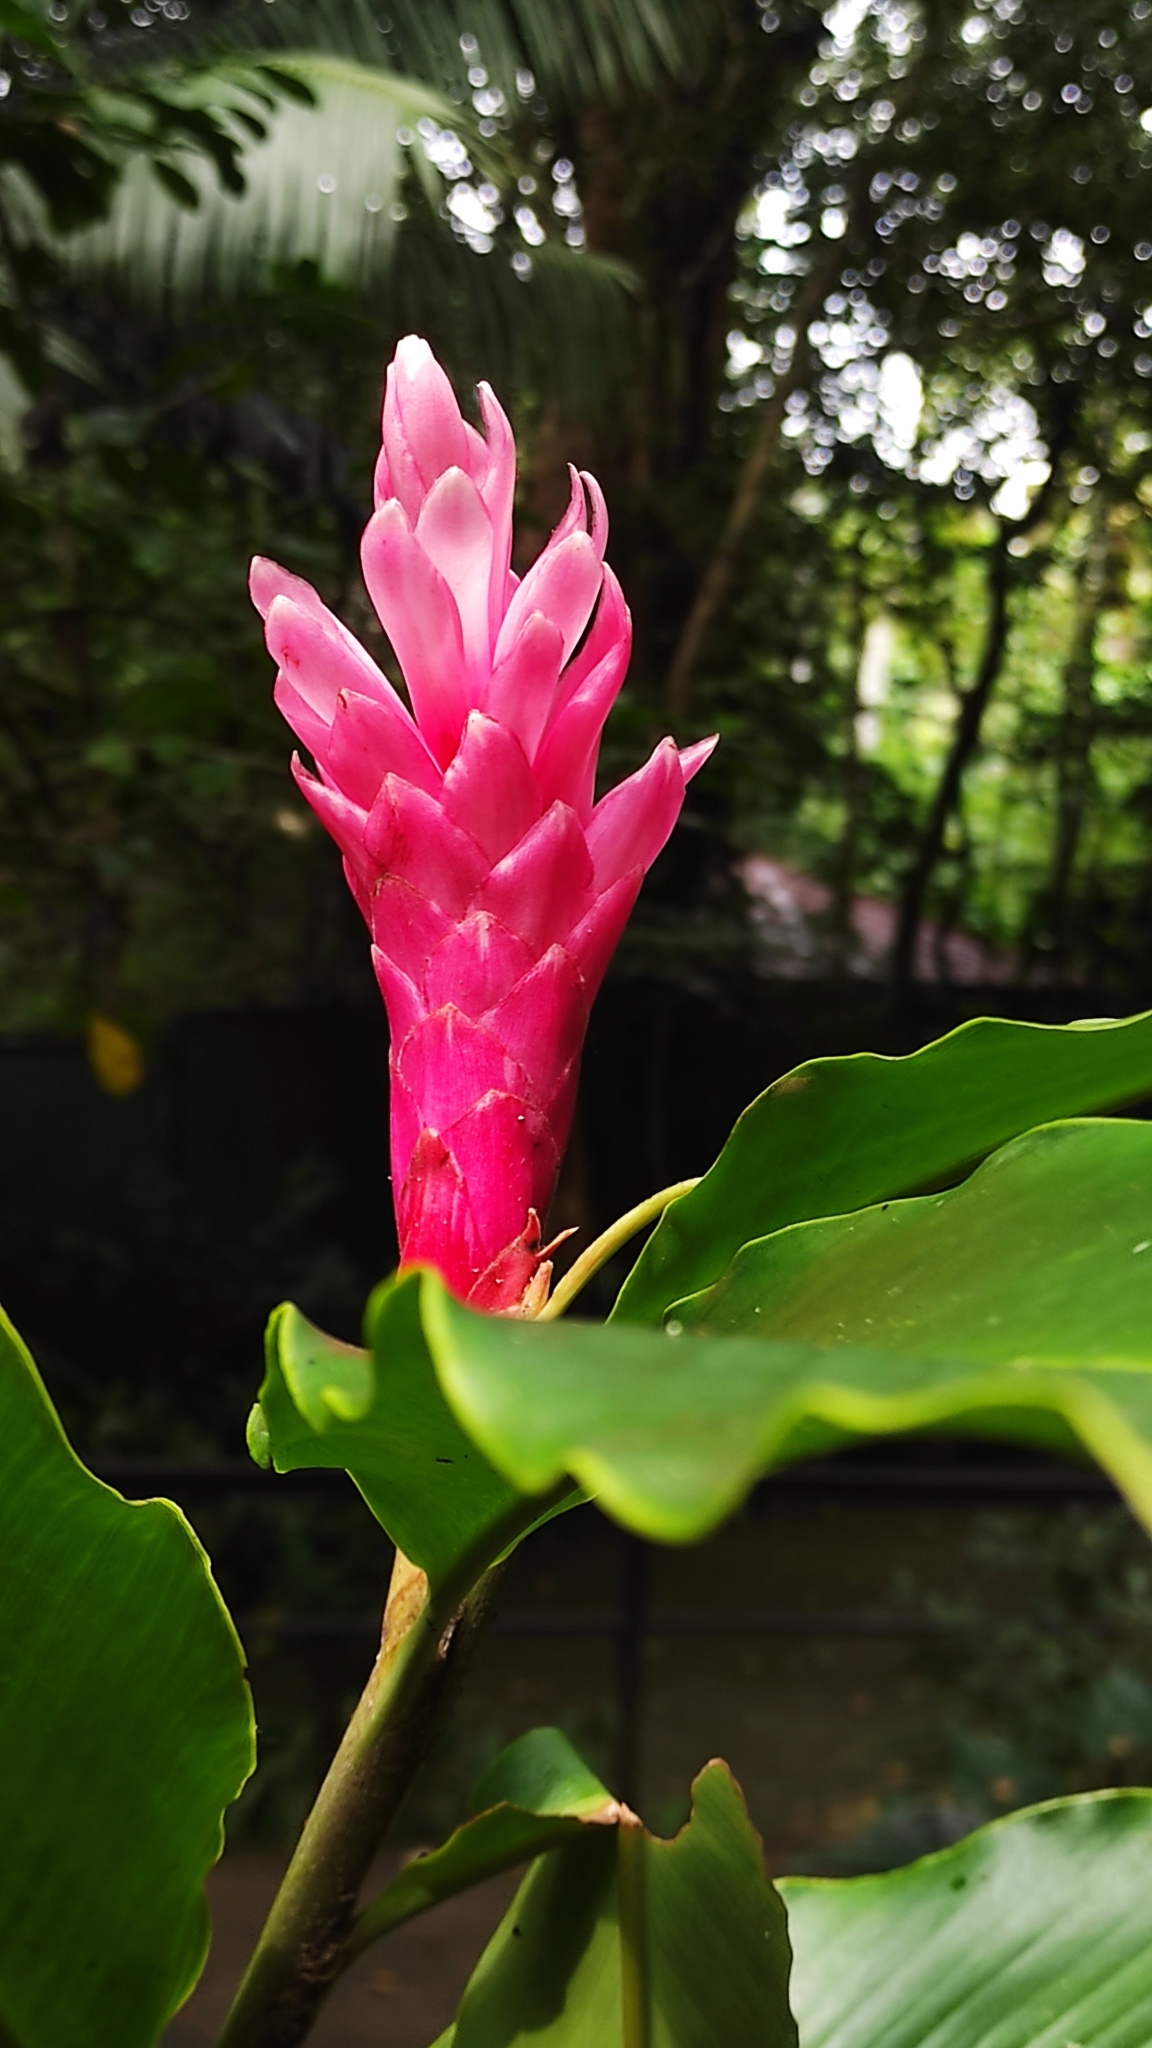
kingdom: Plantae
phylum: Tracheophyta
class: Liliopsida
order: Zingiberales
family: Zingiberaceae
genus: Alpinia
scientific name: Alpinia purpurata
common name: Red ginger
